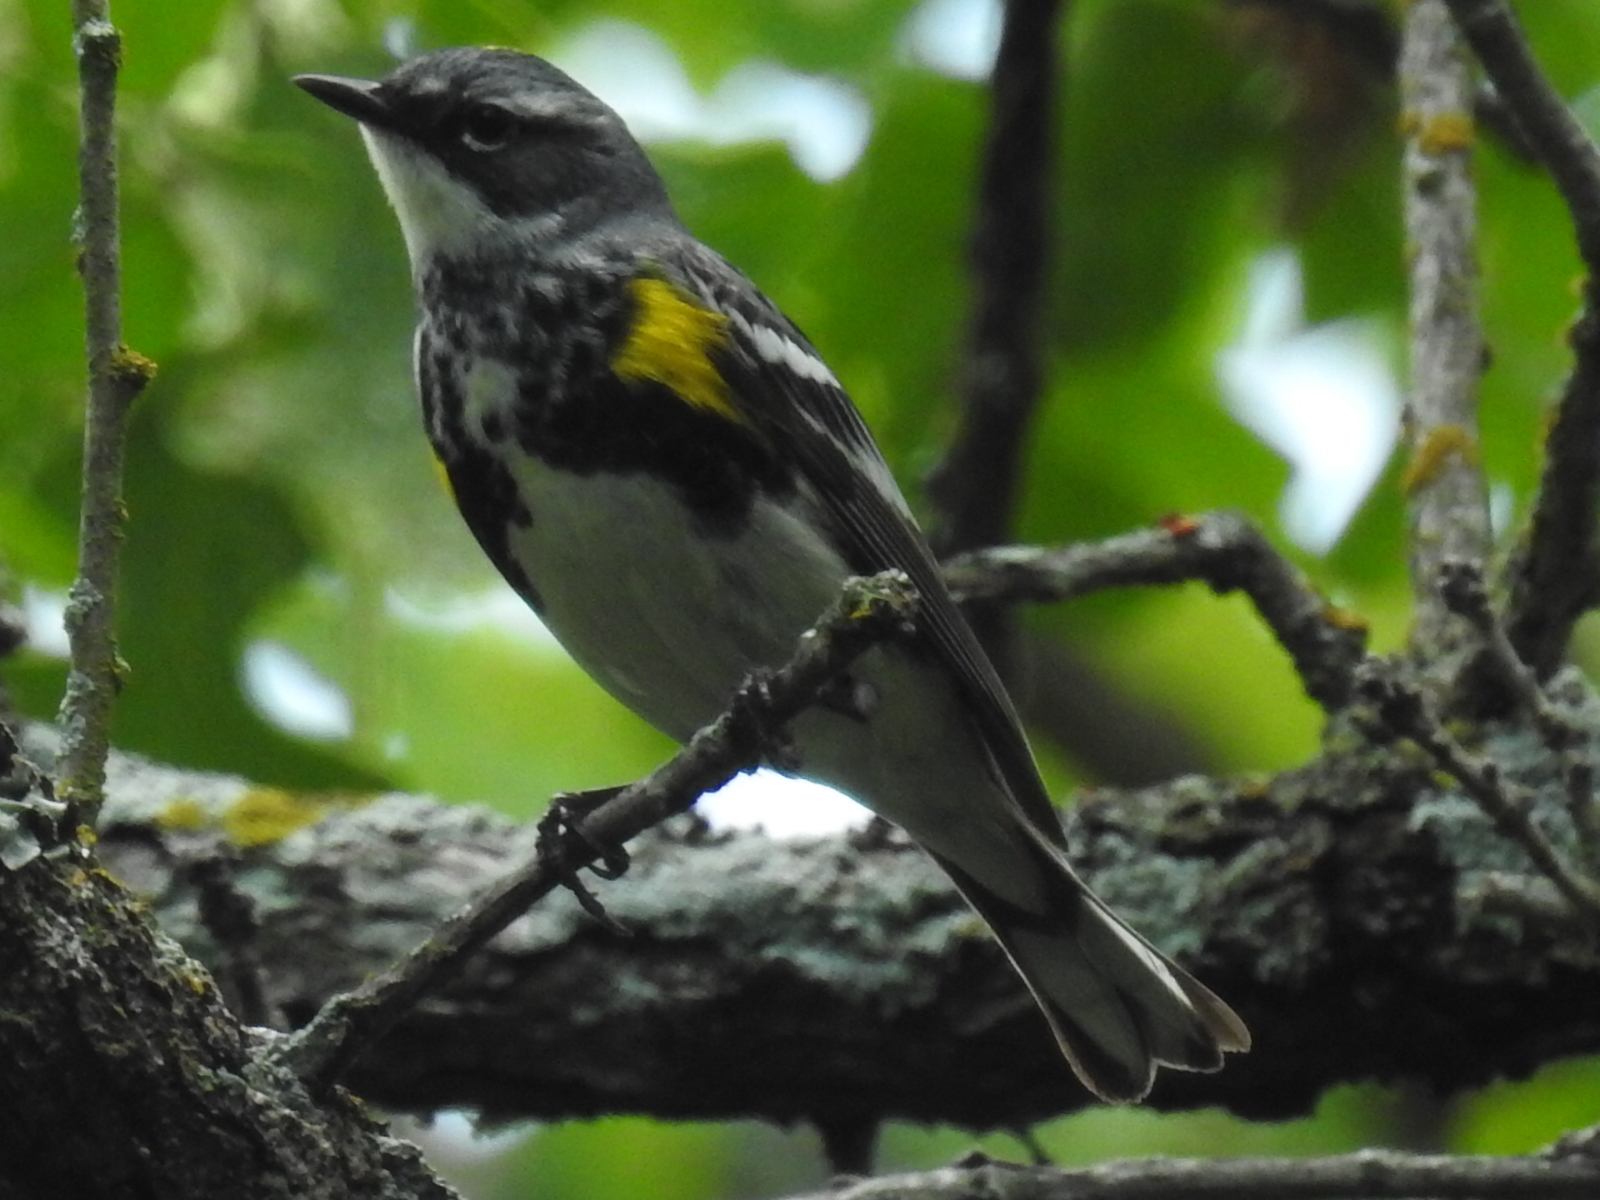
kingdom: Animalia
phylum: Chordata
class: Aves
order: Passeriformes
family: Parulidae
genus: Setophaga
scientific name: Setophaga coronata
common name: Myrtle warbler
